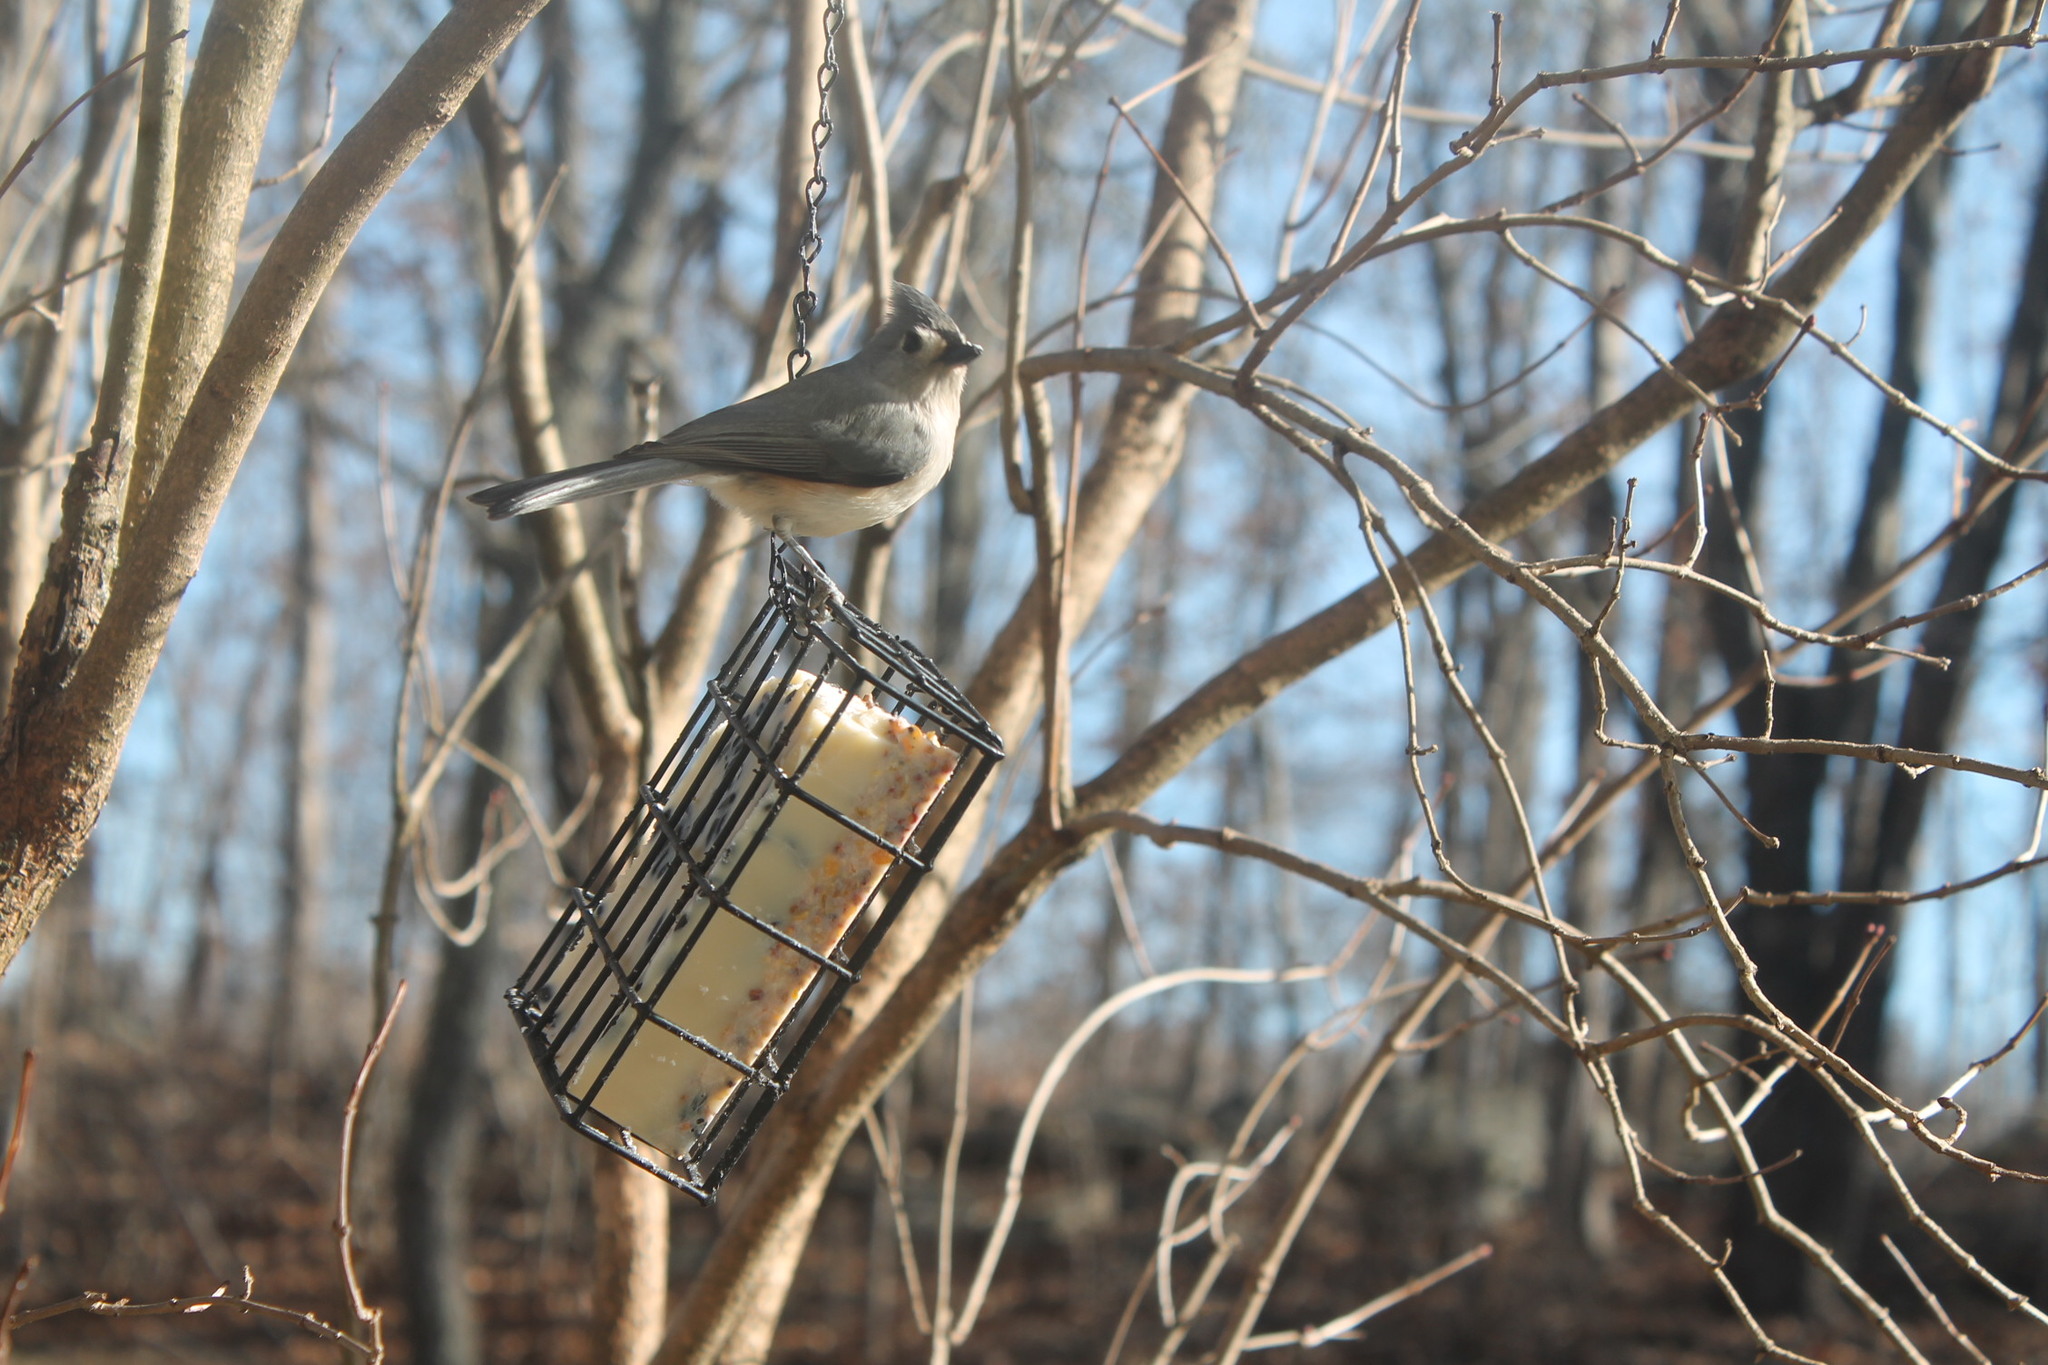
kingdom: Animalia
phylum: Chordata
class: Aves
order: Passeriformes
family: Paridae
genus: Baeolophus
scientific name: Baeolophus bicolor
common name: Tufted titmouse
